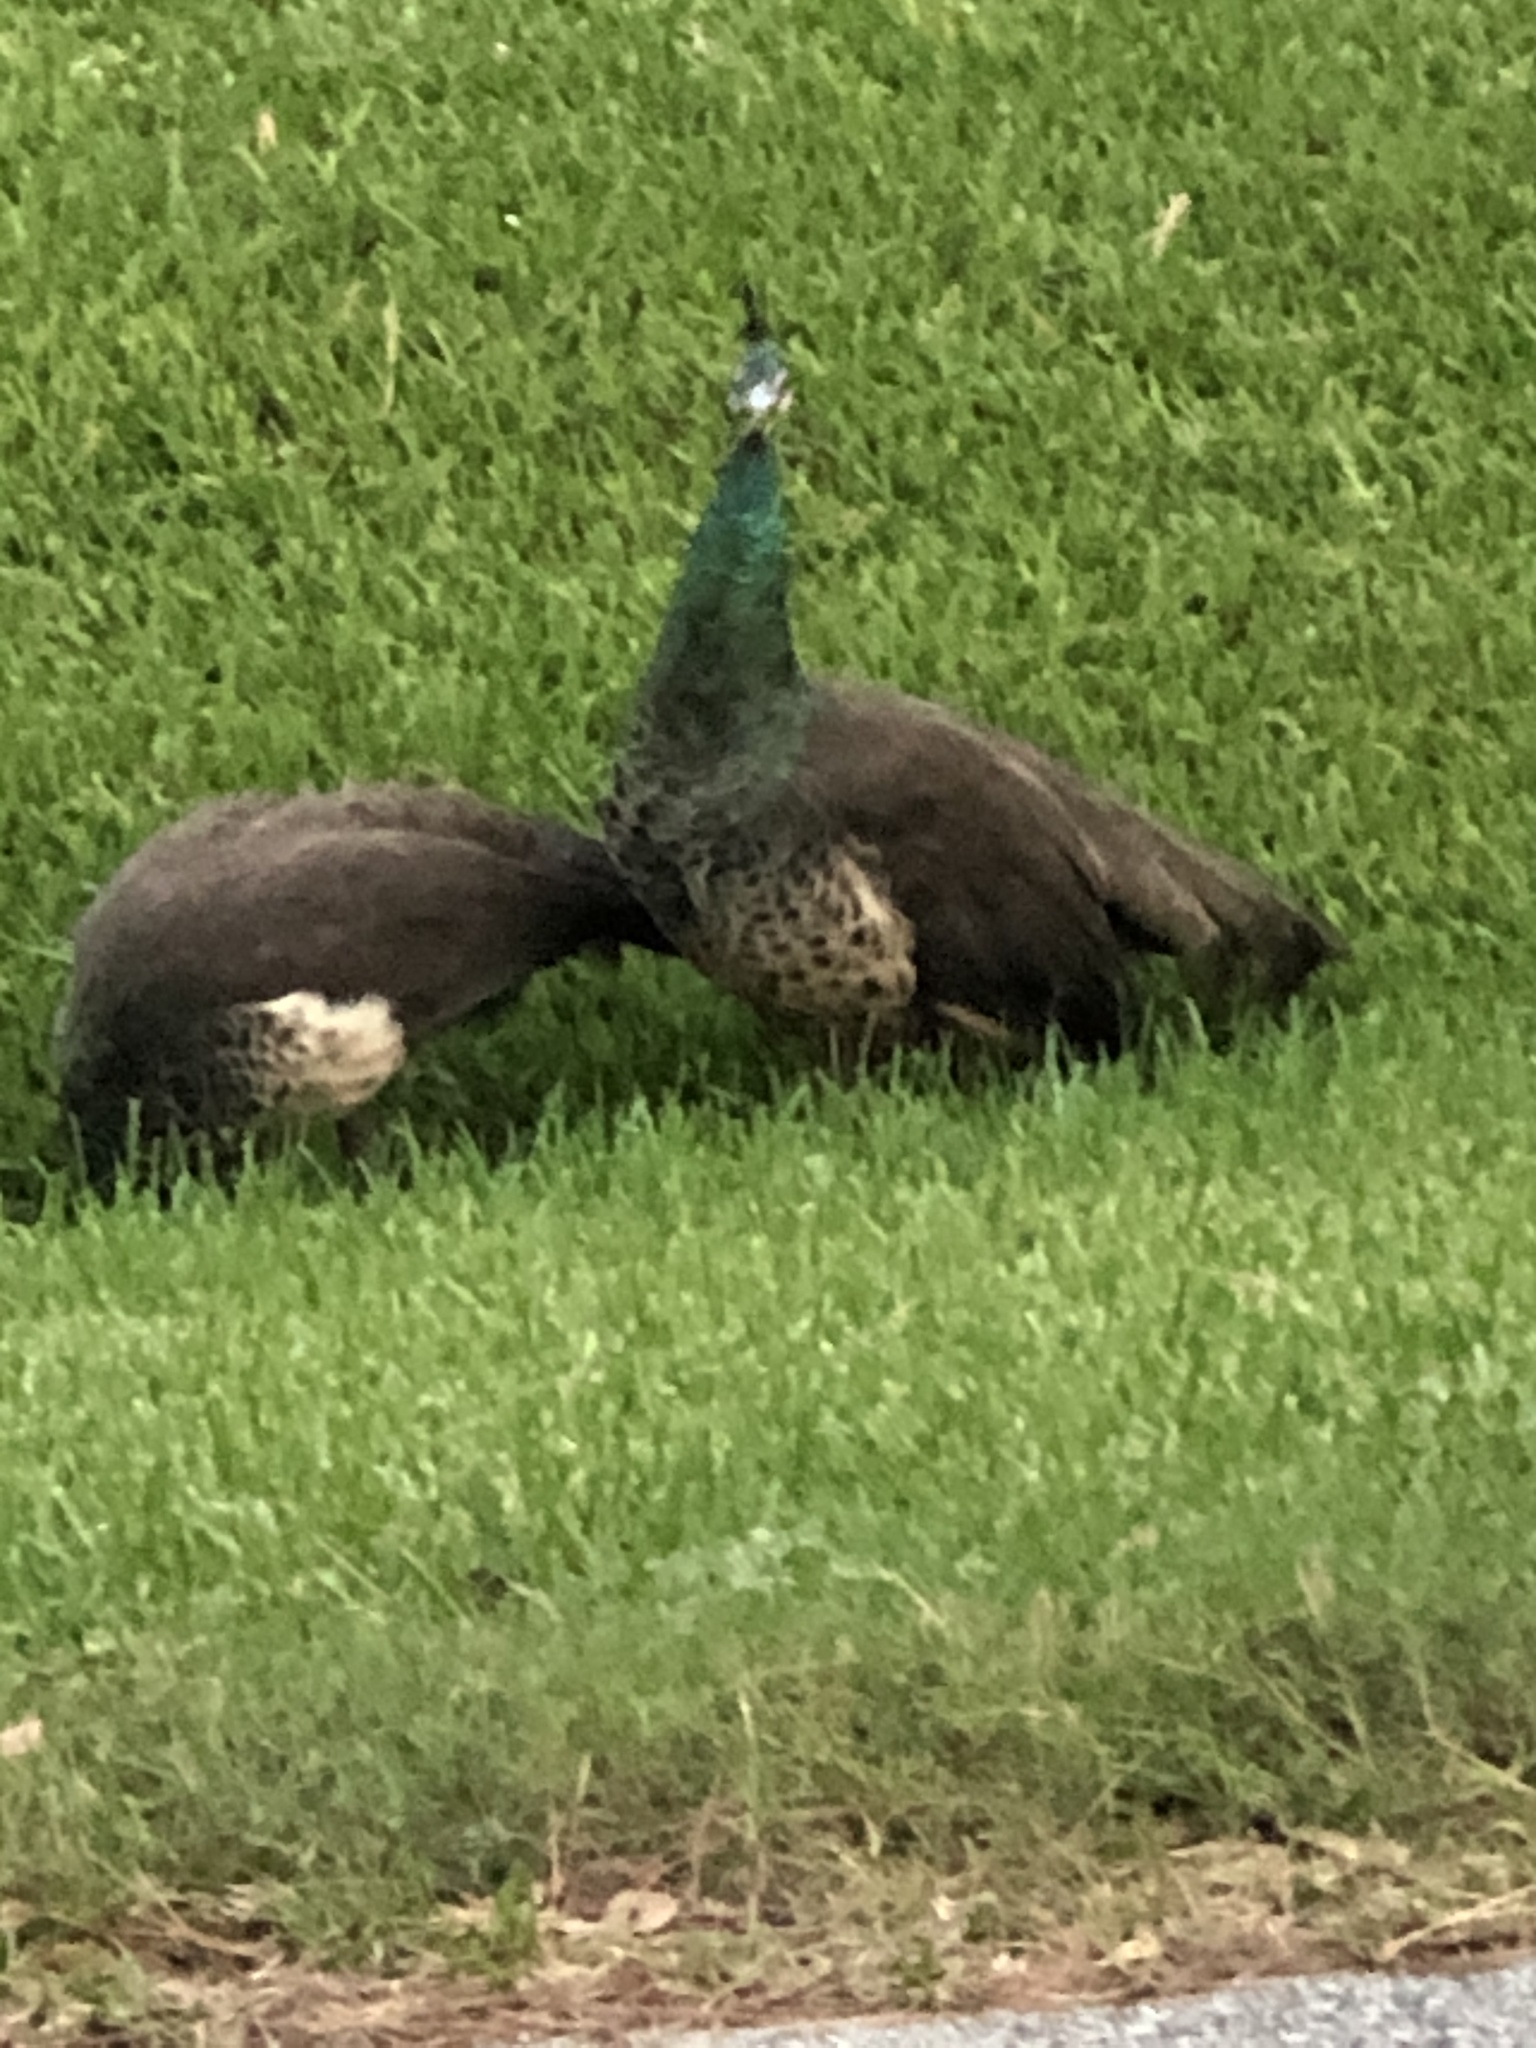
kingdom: Animalia
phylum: Chordata
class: Aves
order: Galliformes
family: Phasianidae
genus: Pavo
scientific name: Pavo cristatus
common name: Indian peafowl
